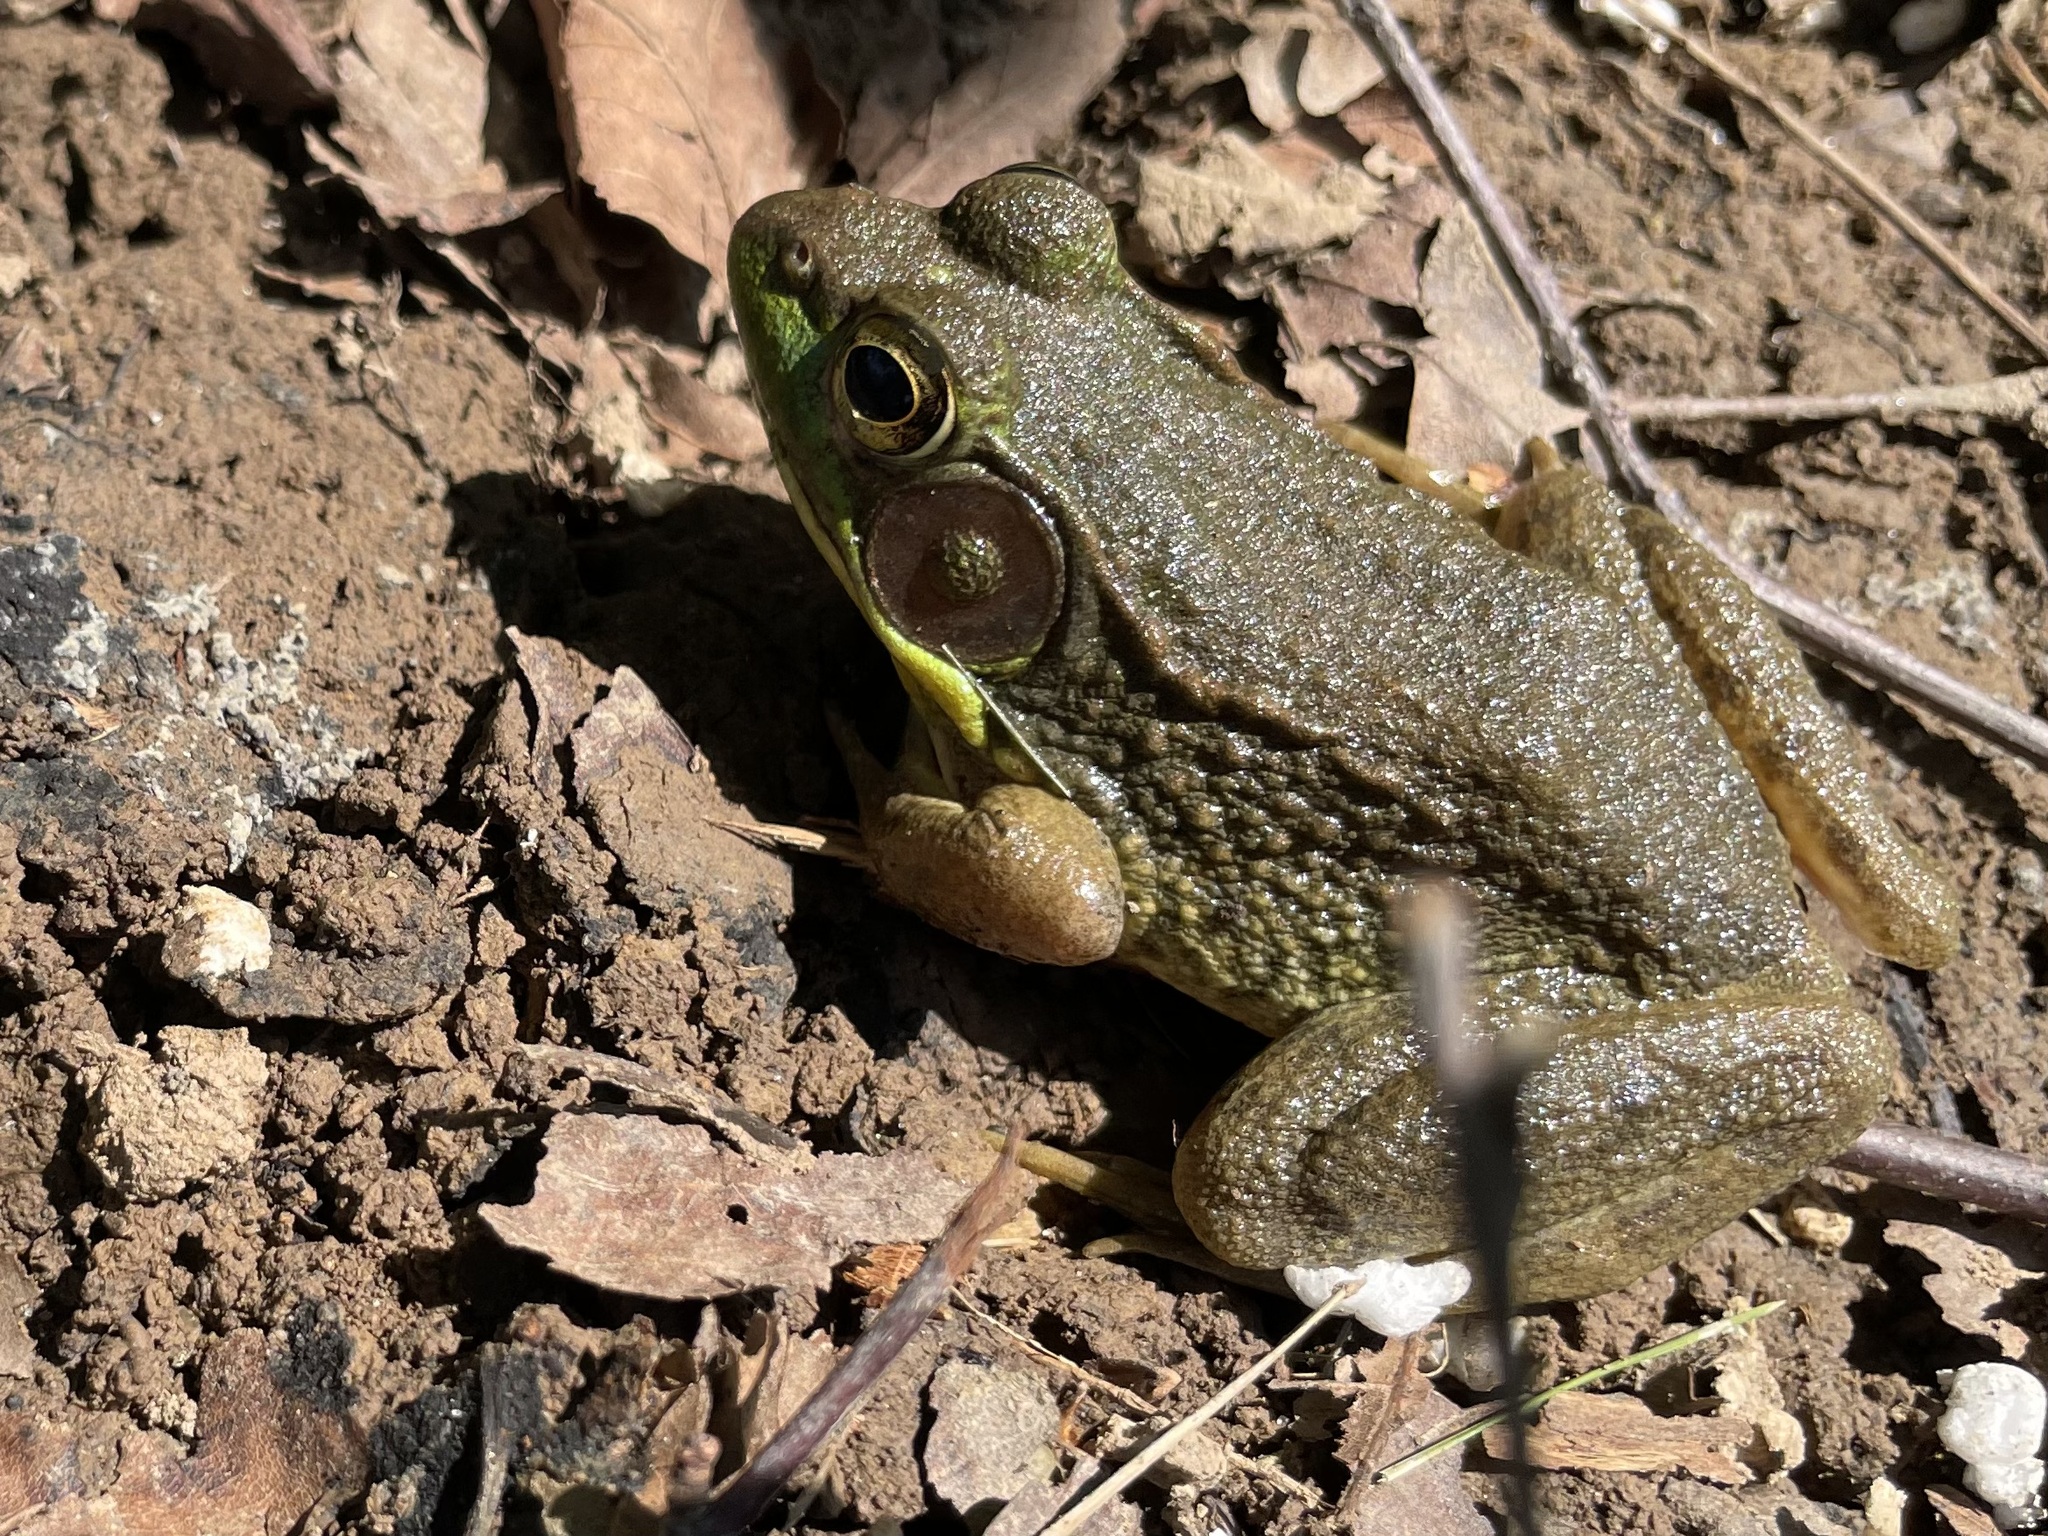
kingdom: Animalia
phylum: Chordata
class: Amphibia
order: Anura
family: Ranidae
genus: Lithobates
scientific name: Lithobates clamitans
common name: Green frog
